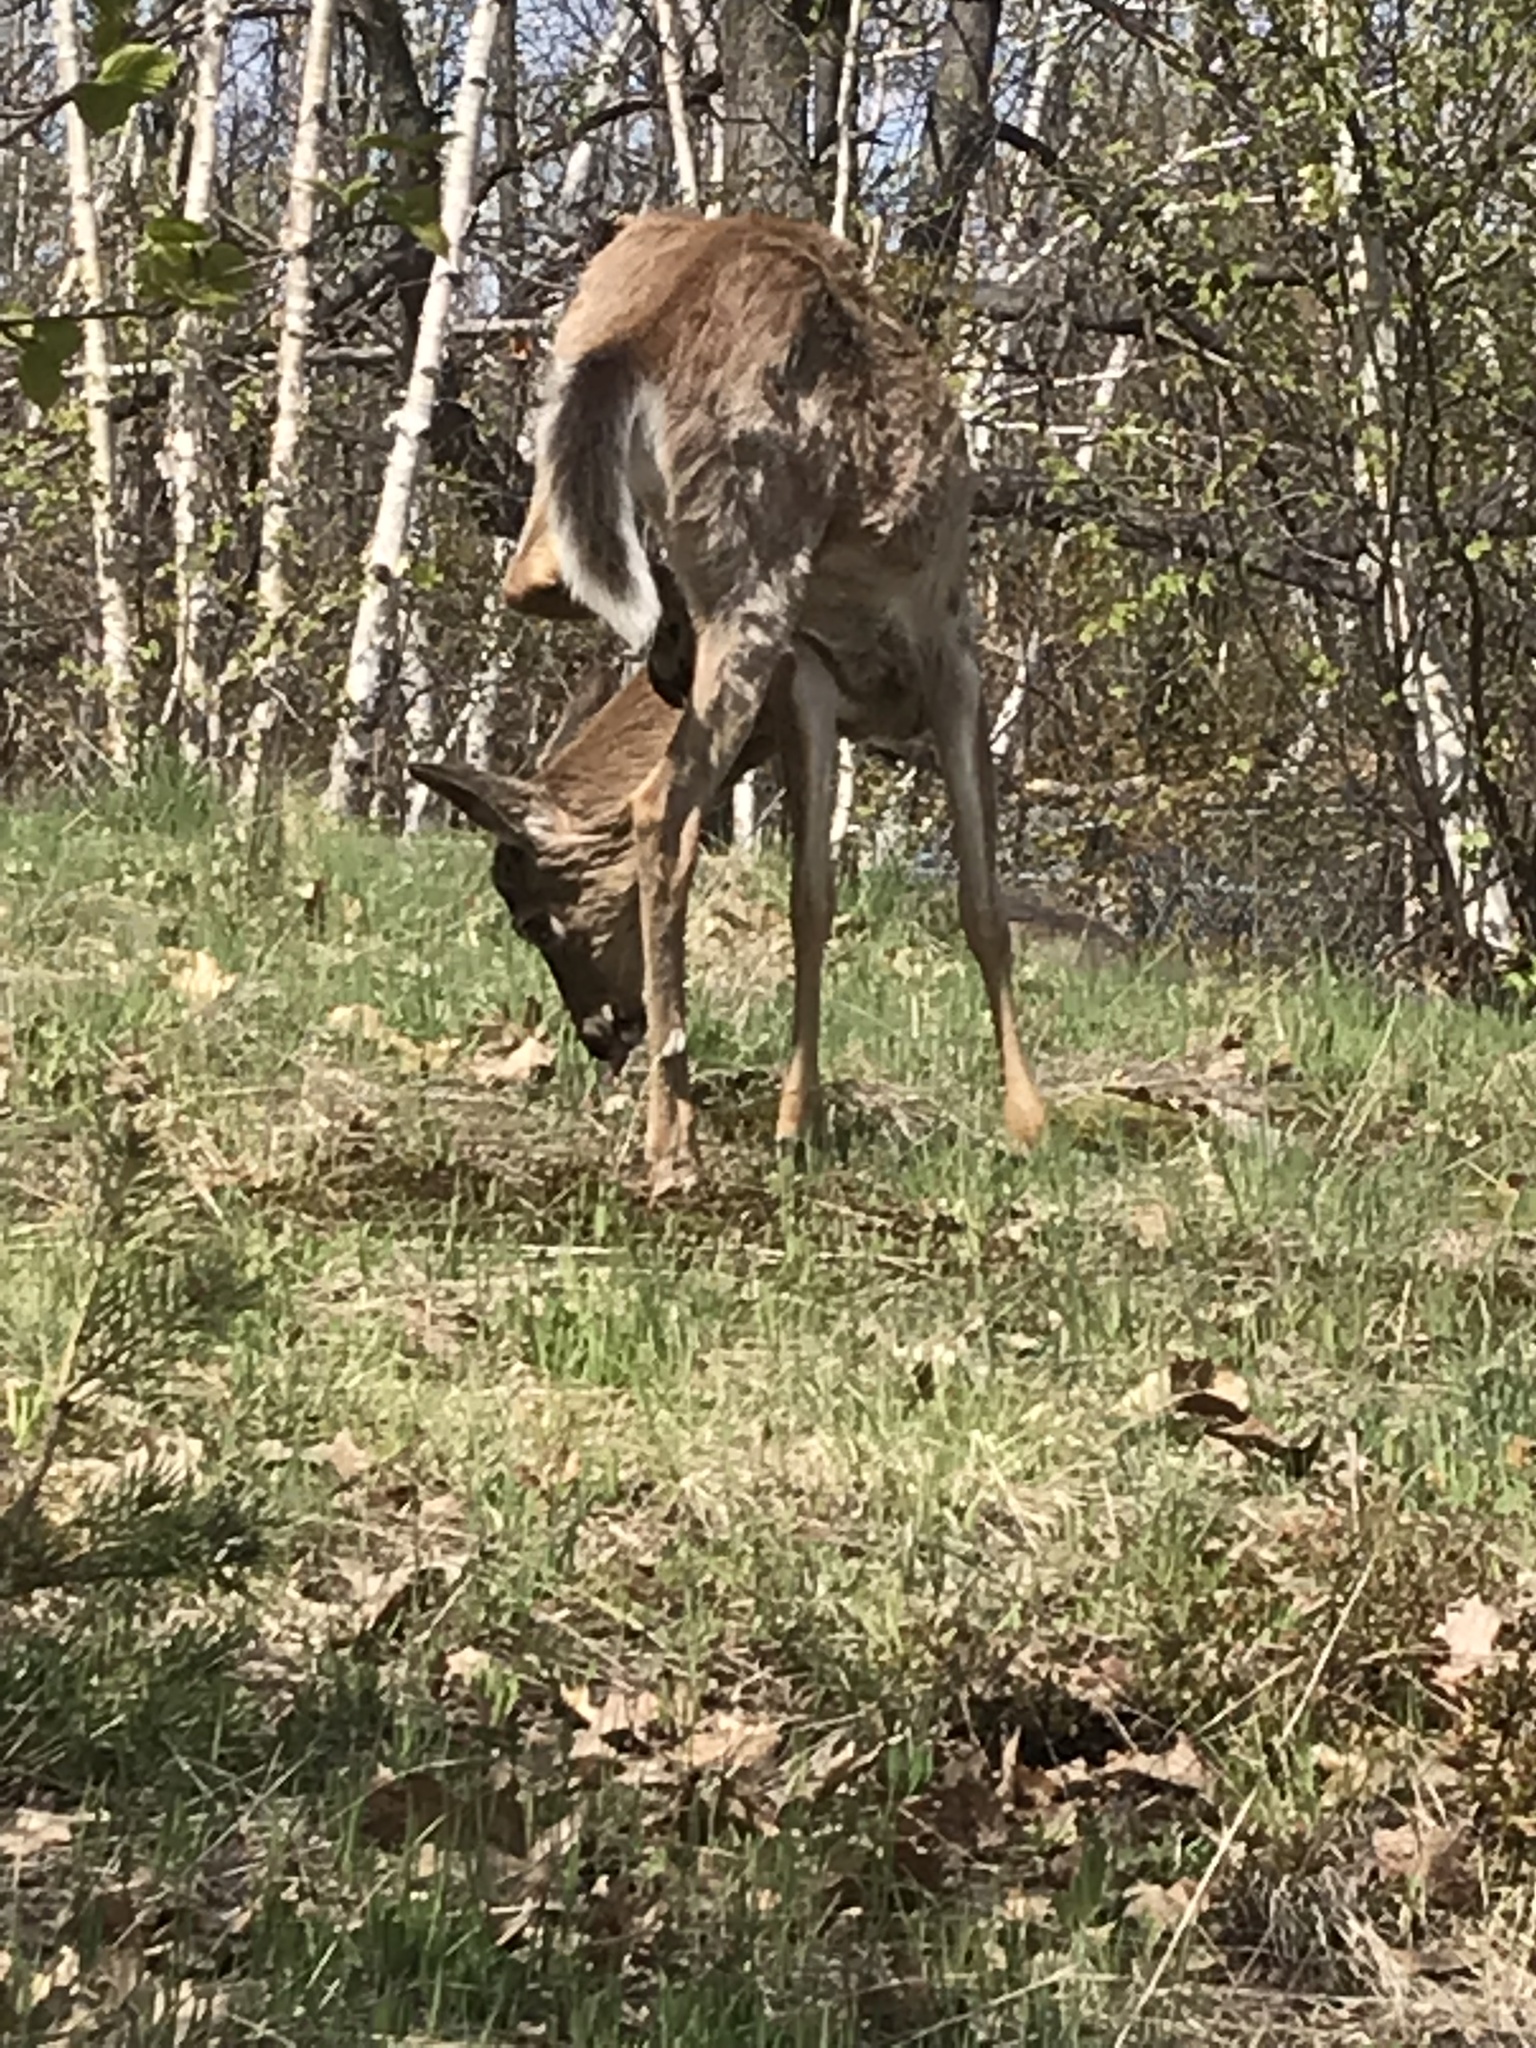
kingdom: Animalia
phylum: Chordata
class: Mammalia
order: Artiodactyla
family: Cervidae
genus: Odocoileus
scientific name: Odocoileus virginianus
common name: White-tailed deer
